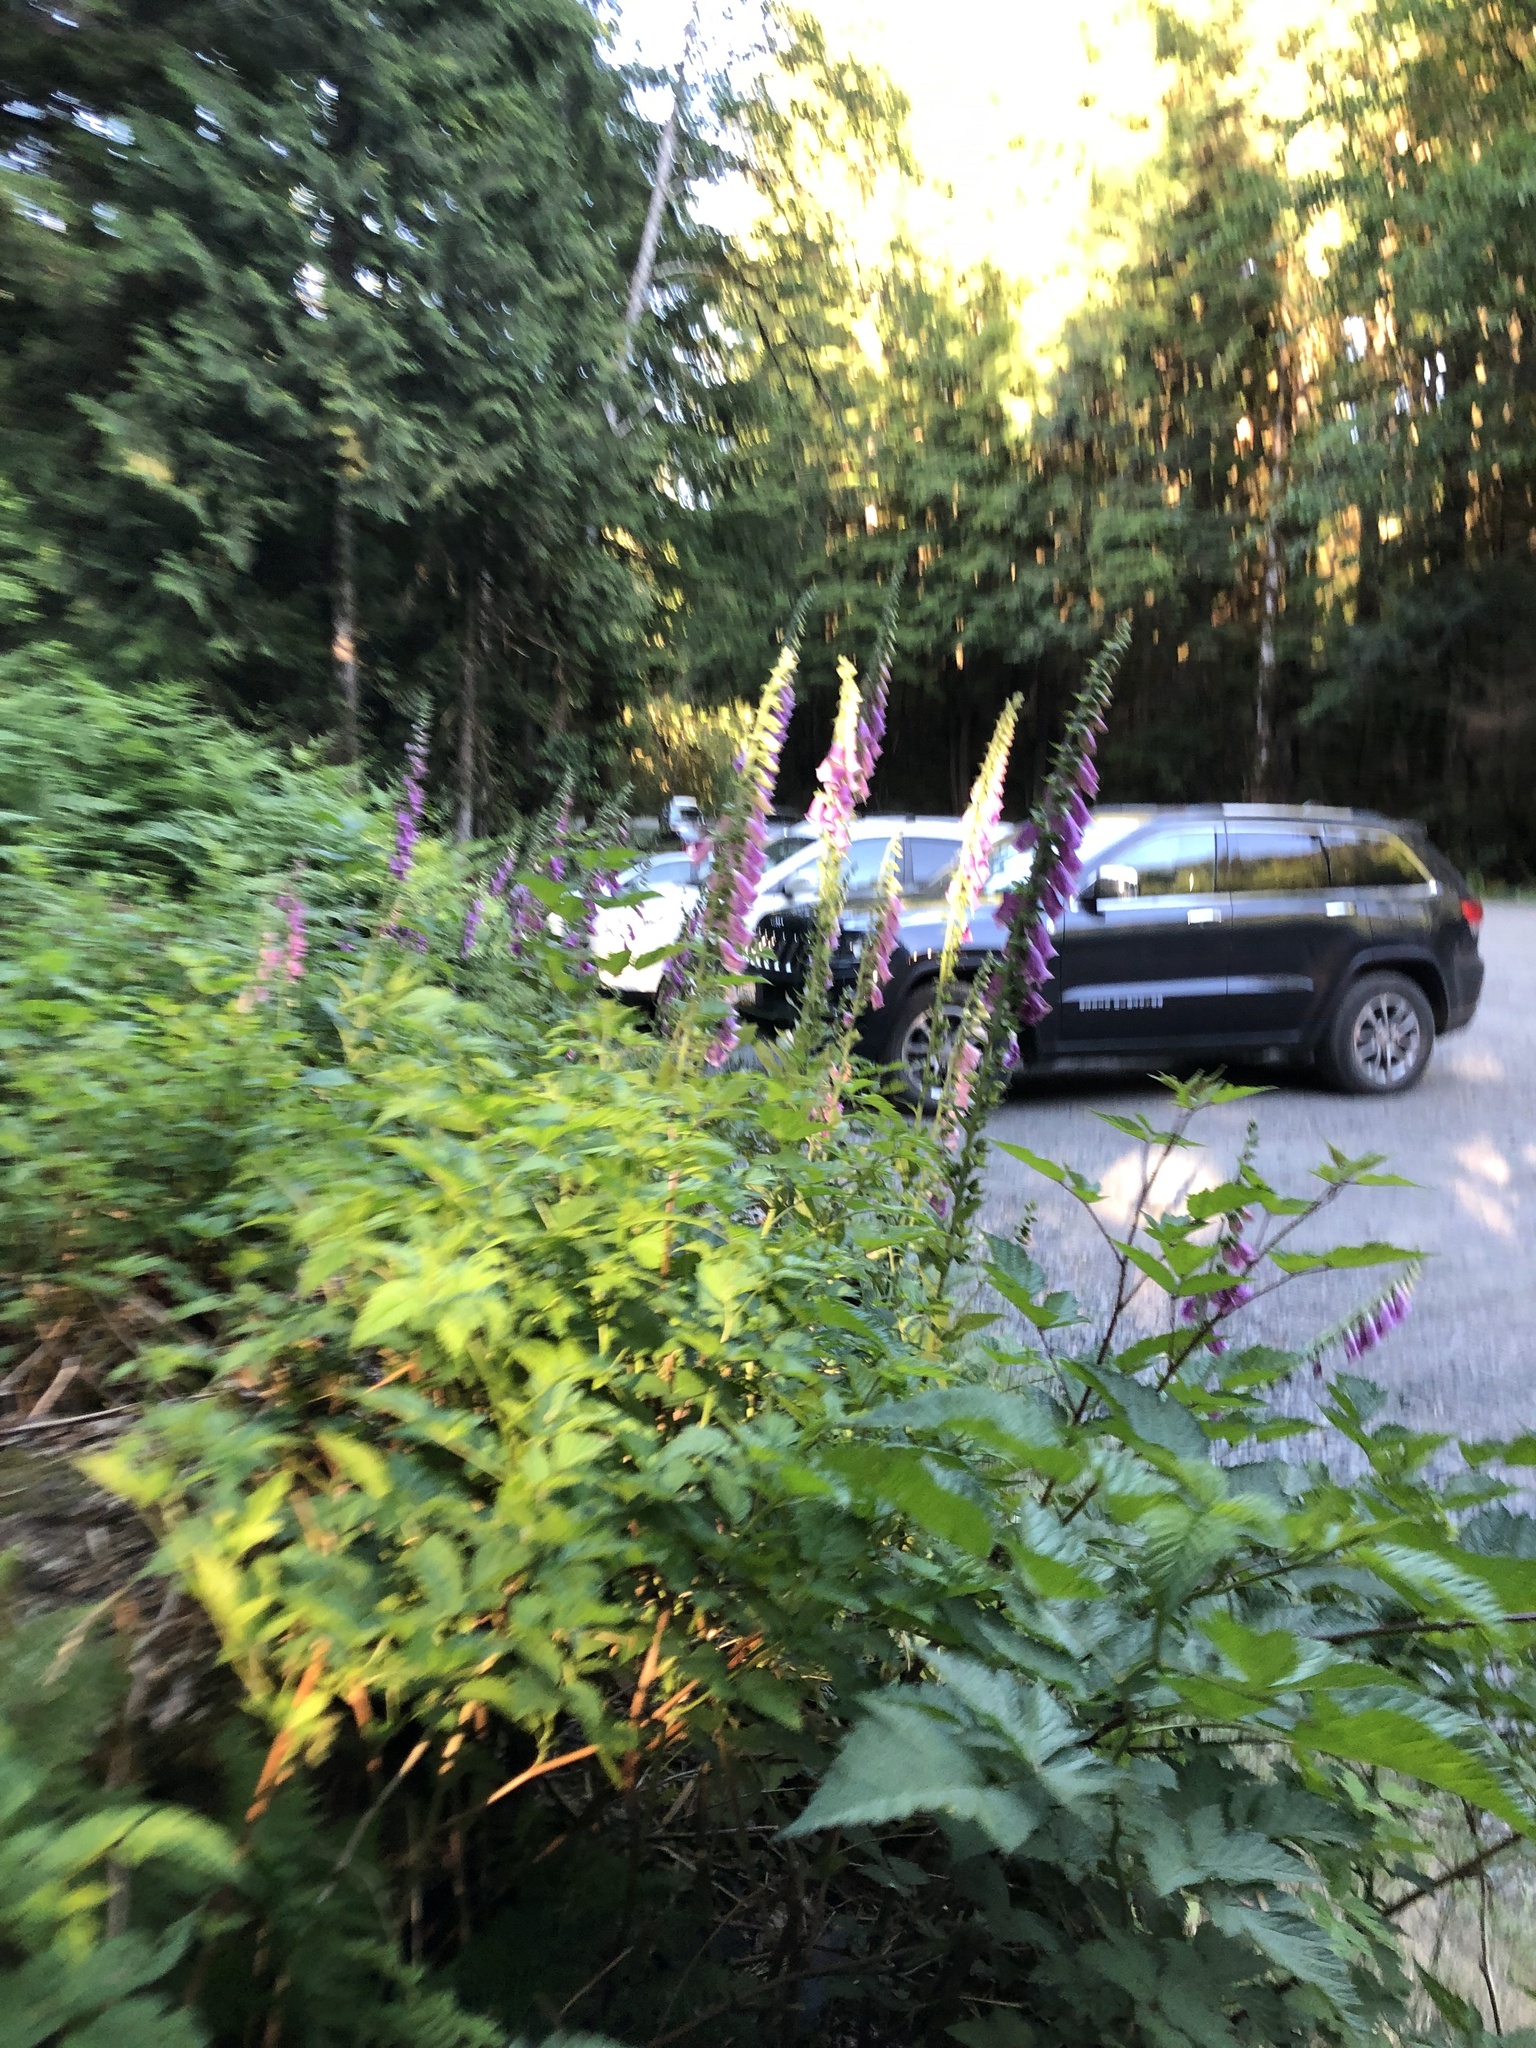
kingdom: Plantae
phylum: Tracheophyta
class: Magnoliopsida
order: Lamiales
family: Plantaginaceae
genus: Digitalis
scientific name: Digitalis purpurea
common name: Foxglove
